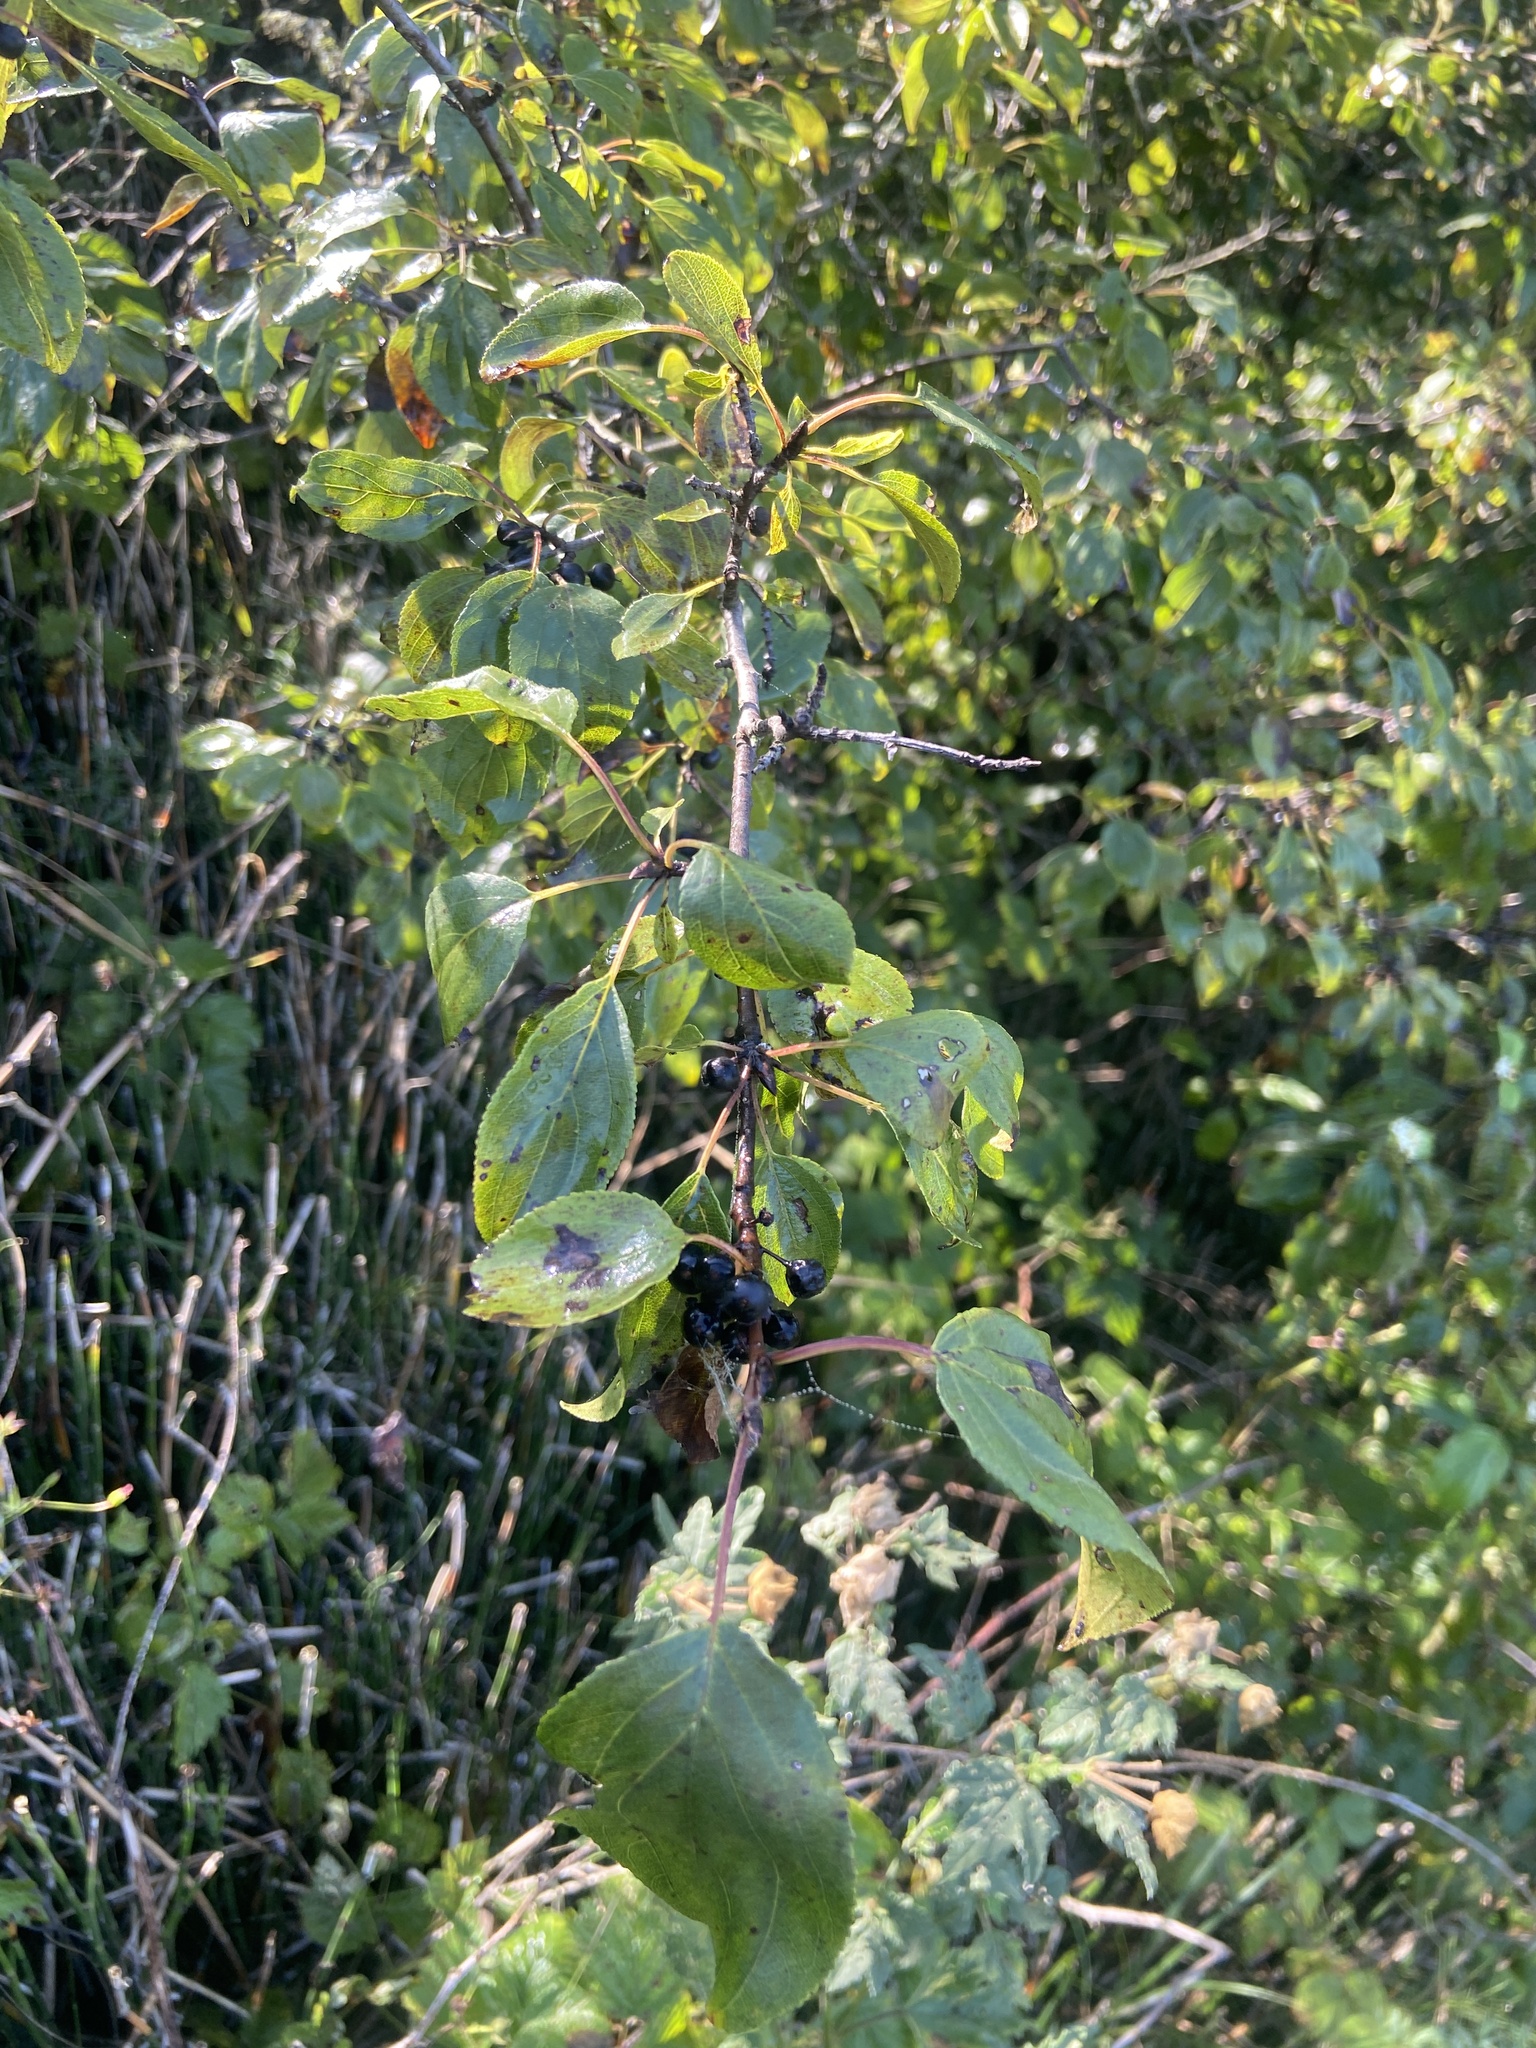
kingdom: Plantae
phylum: Tracheophyta
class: Magnoliopsida
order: Rosales
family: Rhamnaceae
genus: Rhamnus
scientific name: Rhamnus cathartica
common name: Common buckthorn
